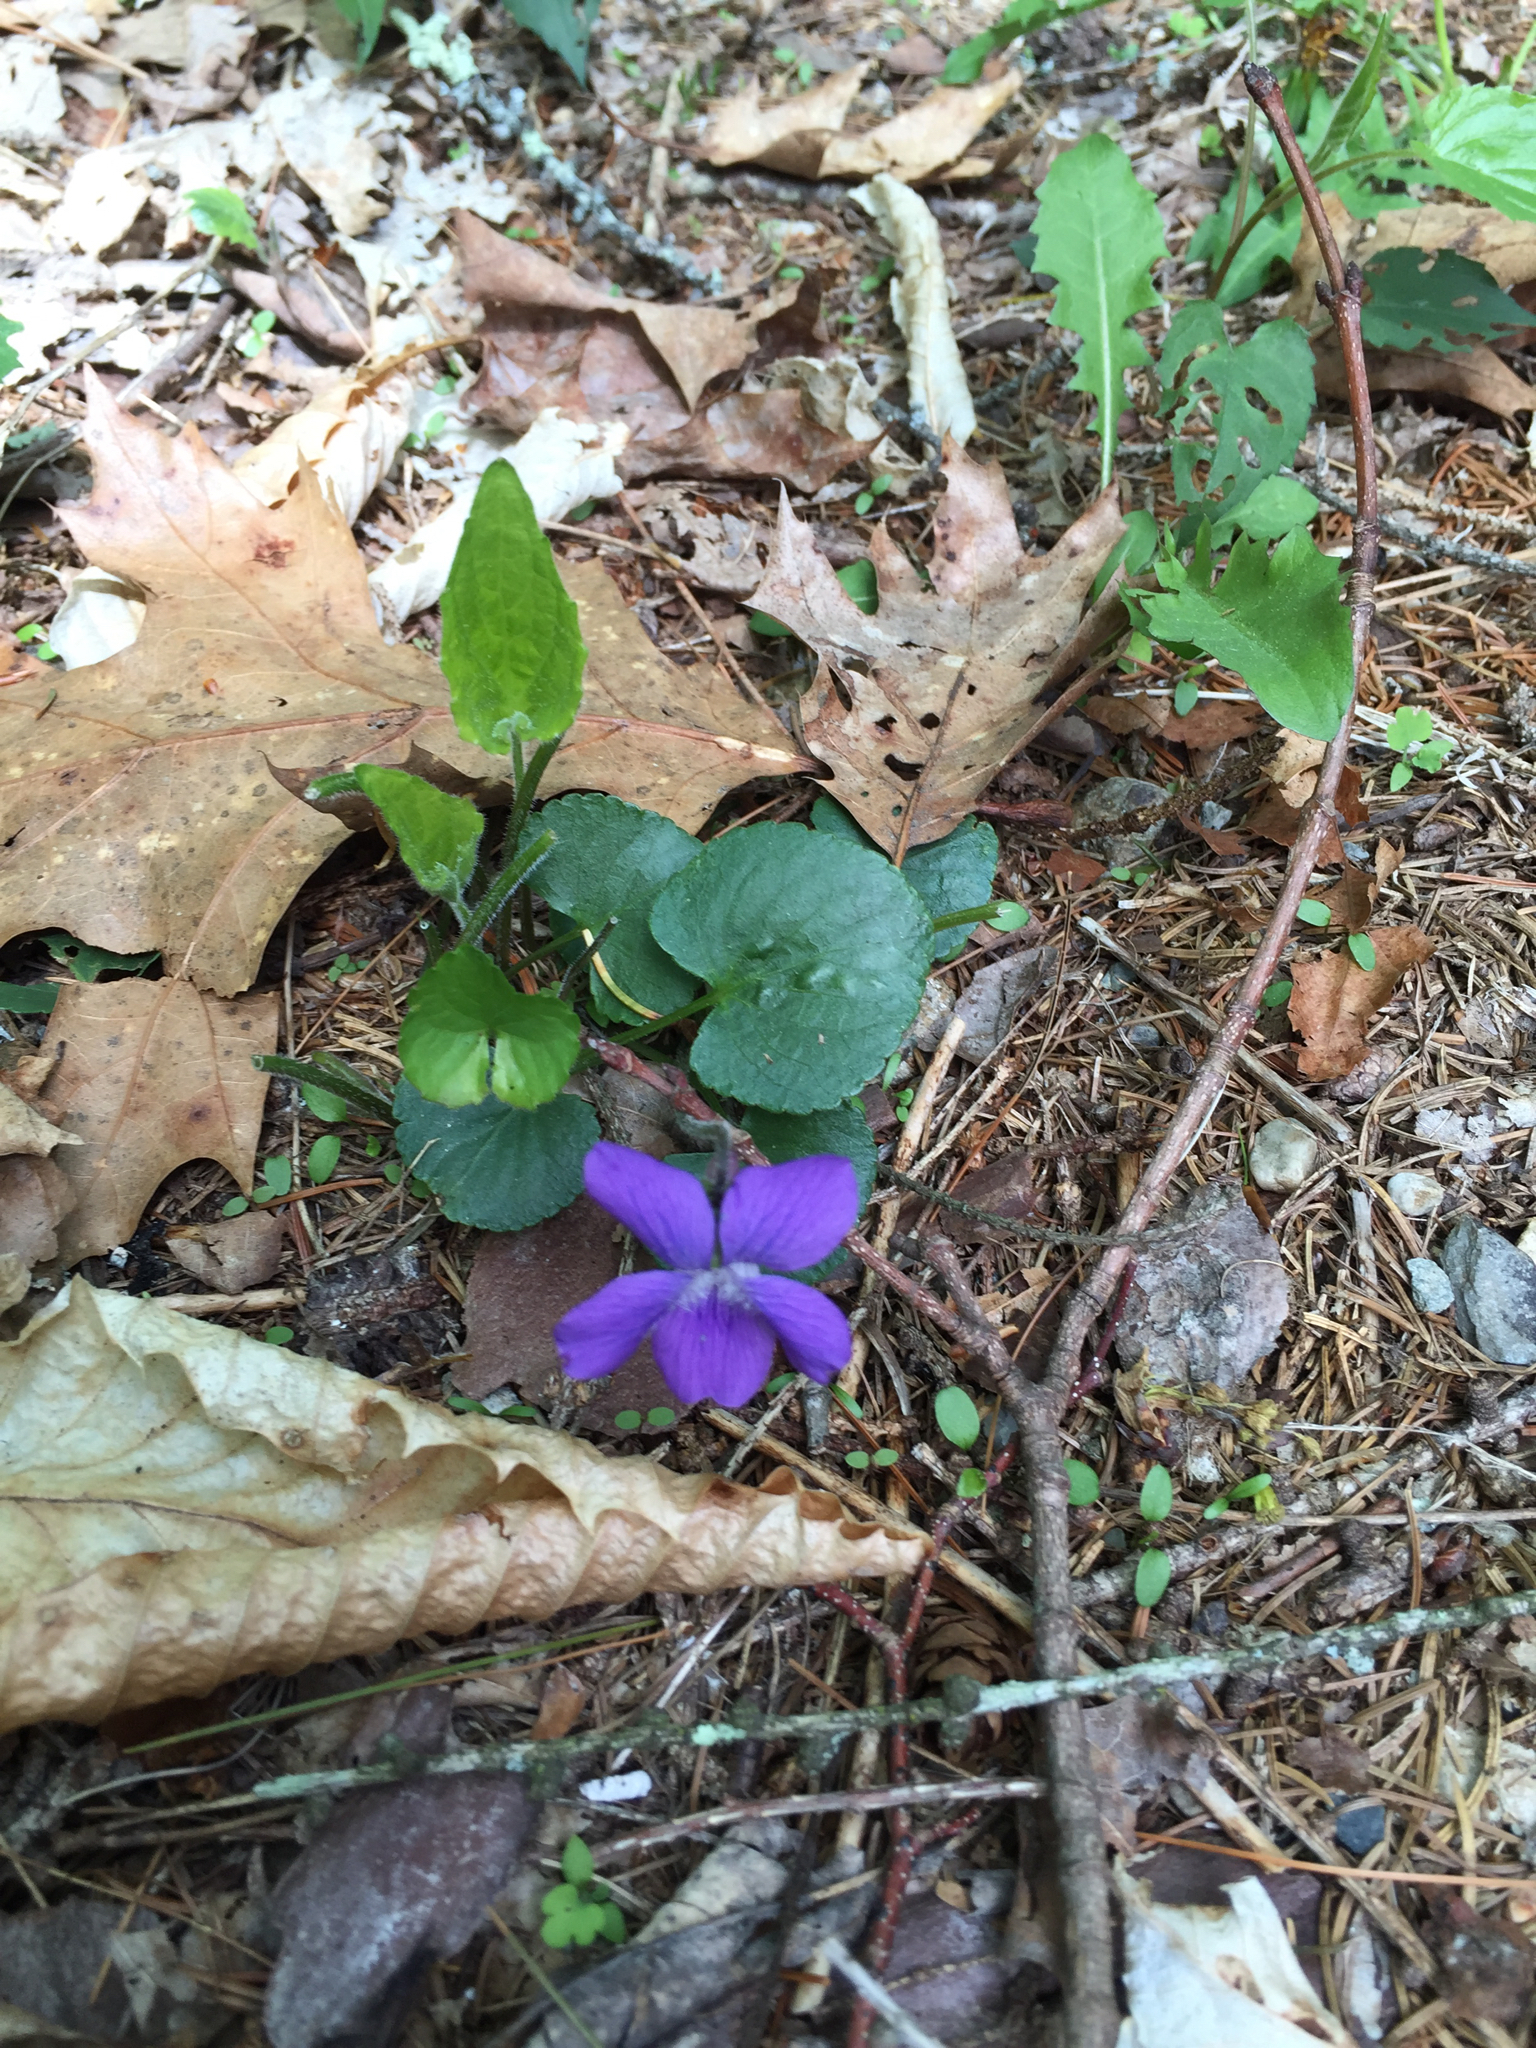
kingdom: Plantae
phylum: Tracheophyta
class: Magnoliopsida
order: Malpighiales
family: Violaceae
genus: Viola
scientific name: Viola sororia
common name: Dooryard violet
